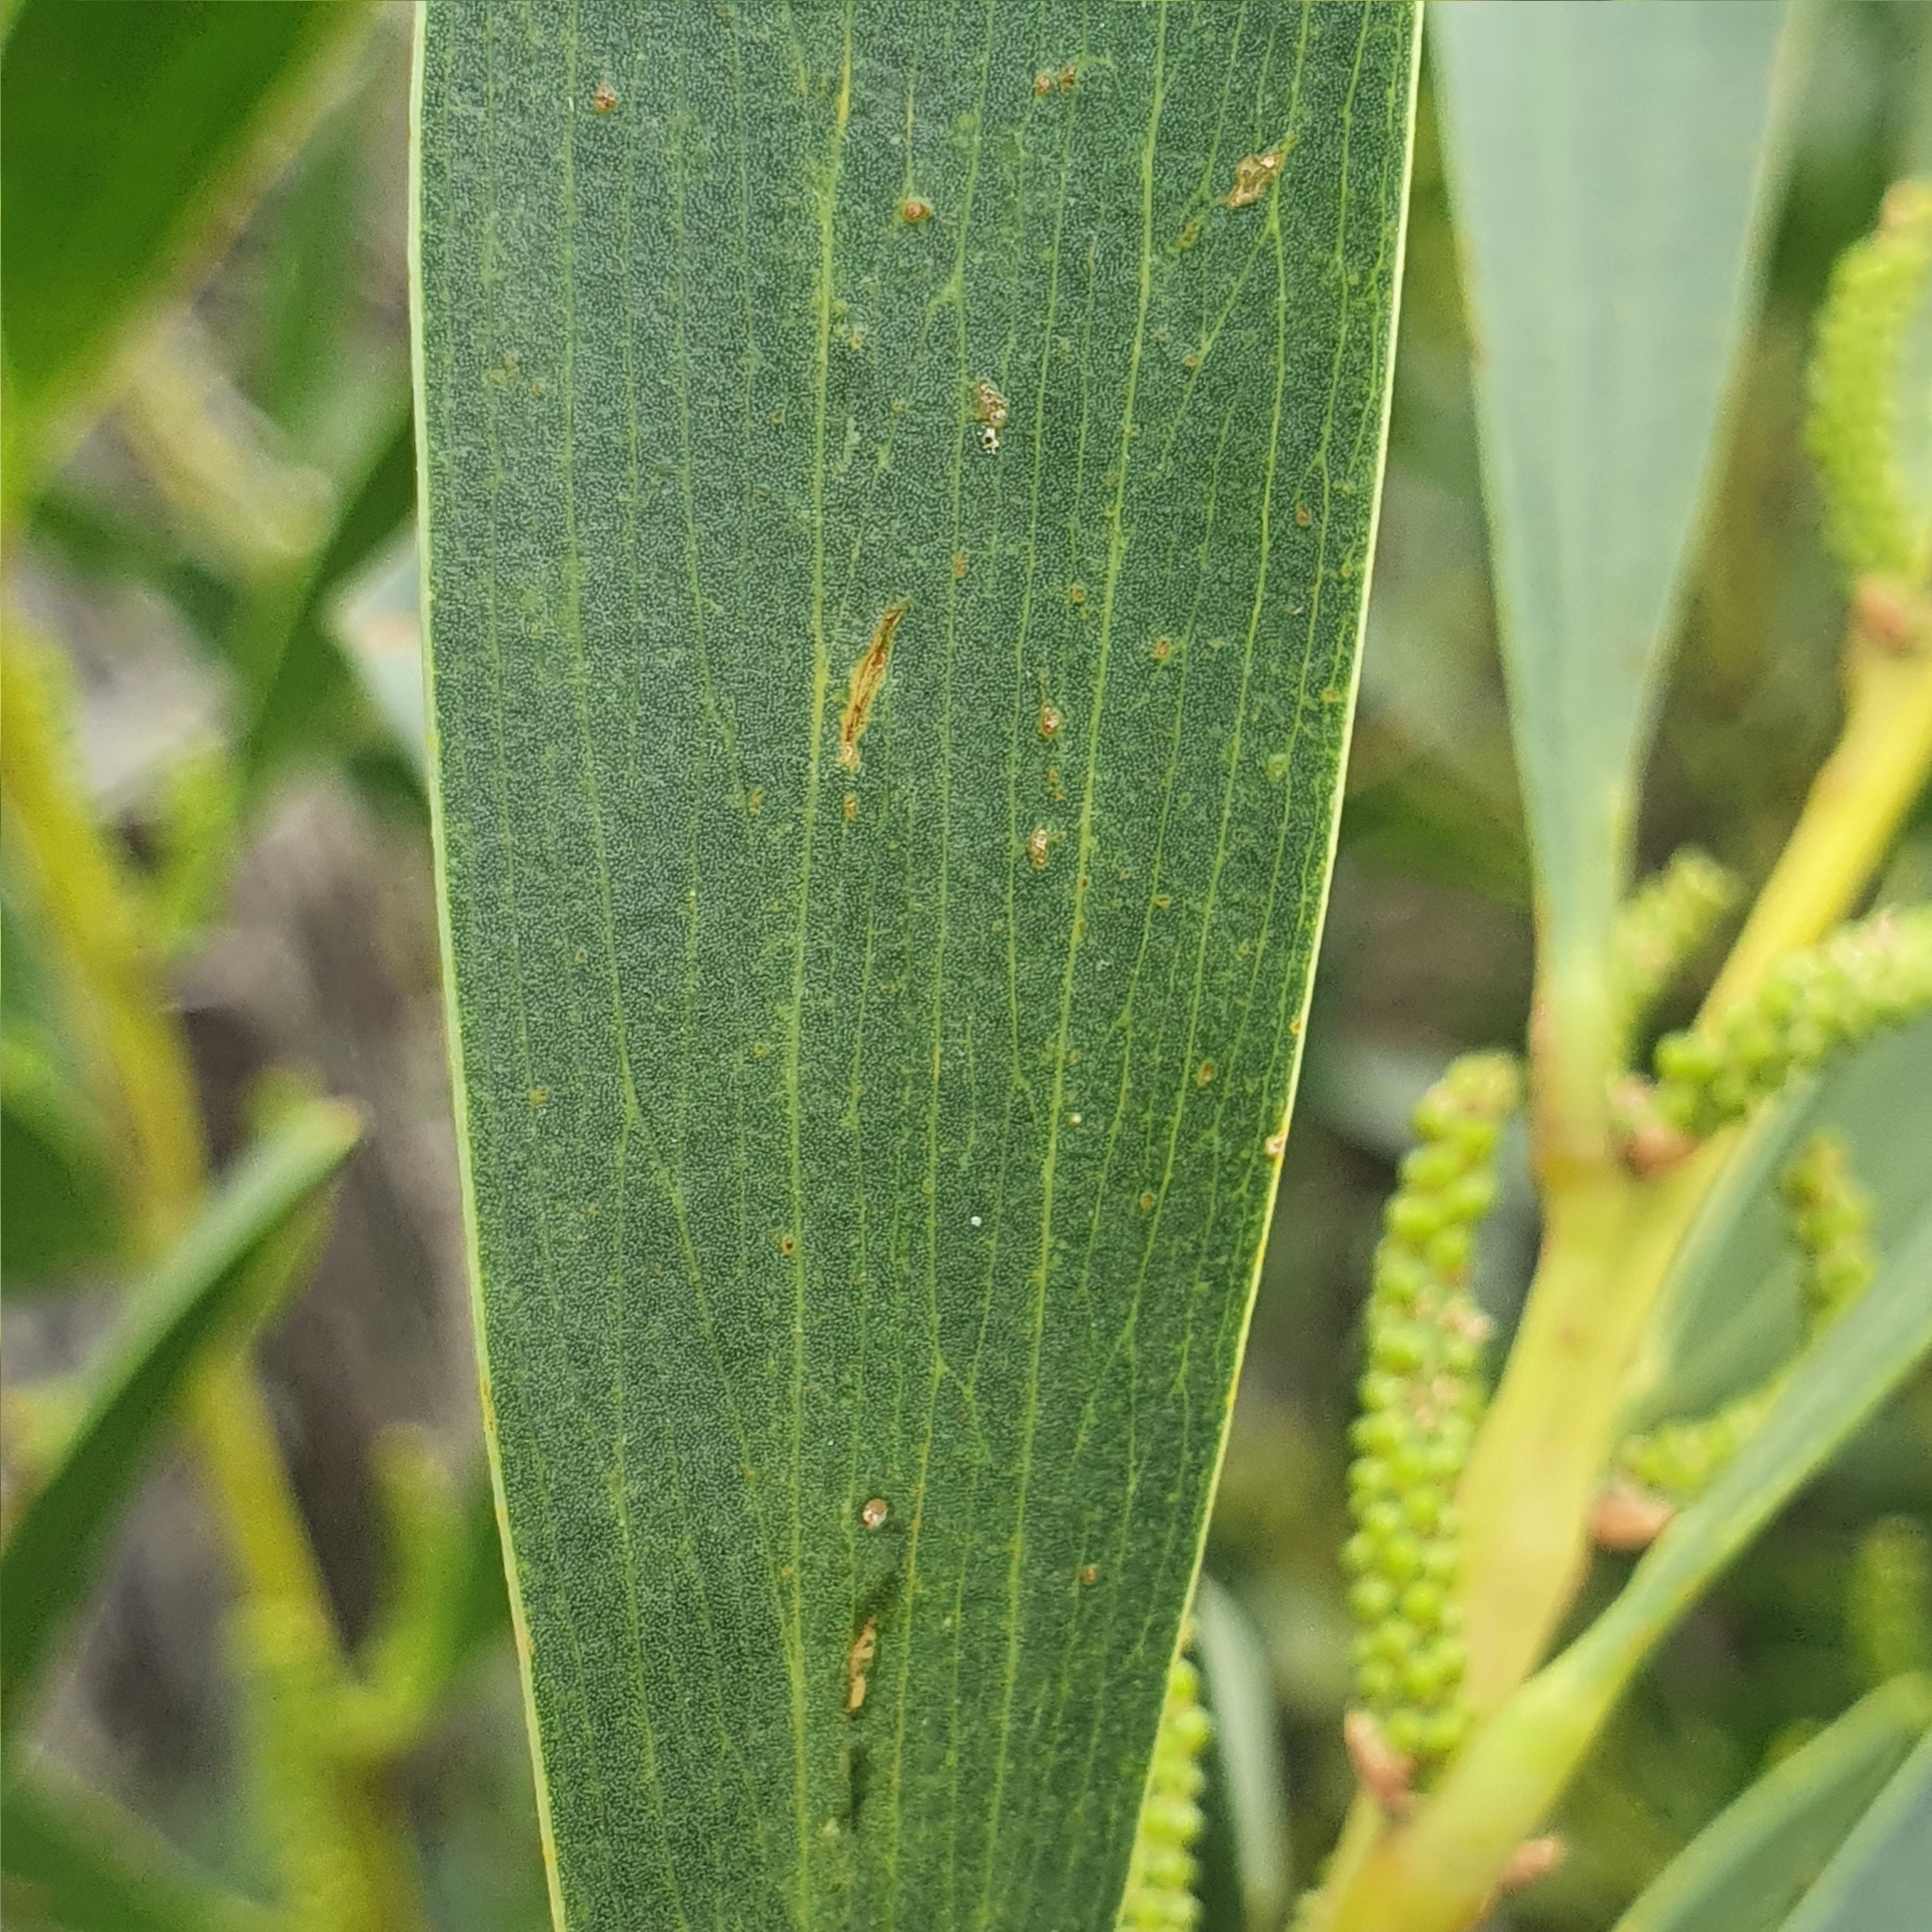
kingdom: Plantae
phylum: Tracheophyta
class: Magnoliopsida
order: Fabales
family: Fabaceae
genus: Acacia
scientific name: Acacia longifolia
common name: Sydney golden wattle
